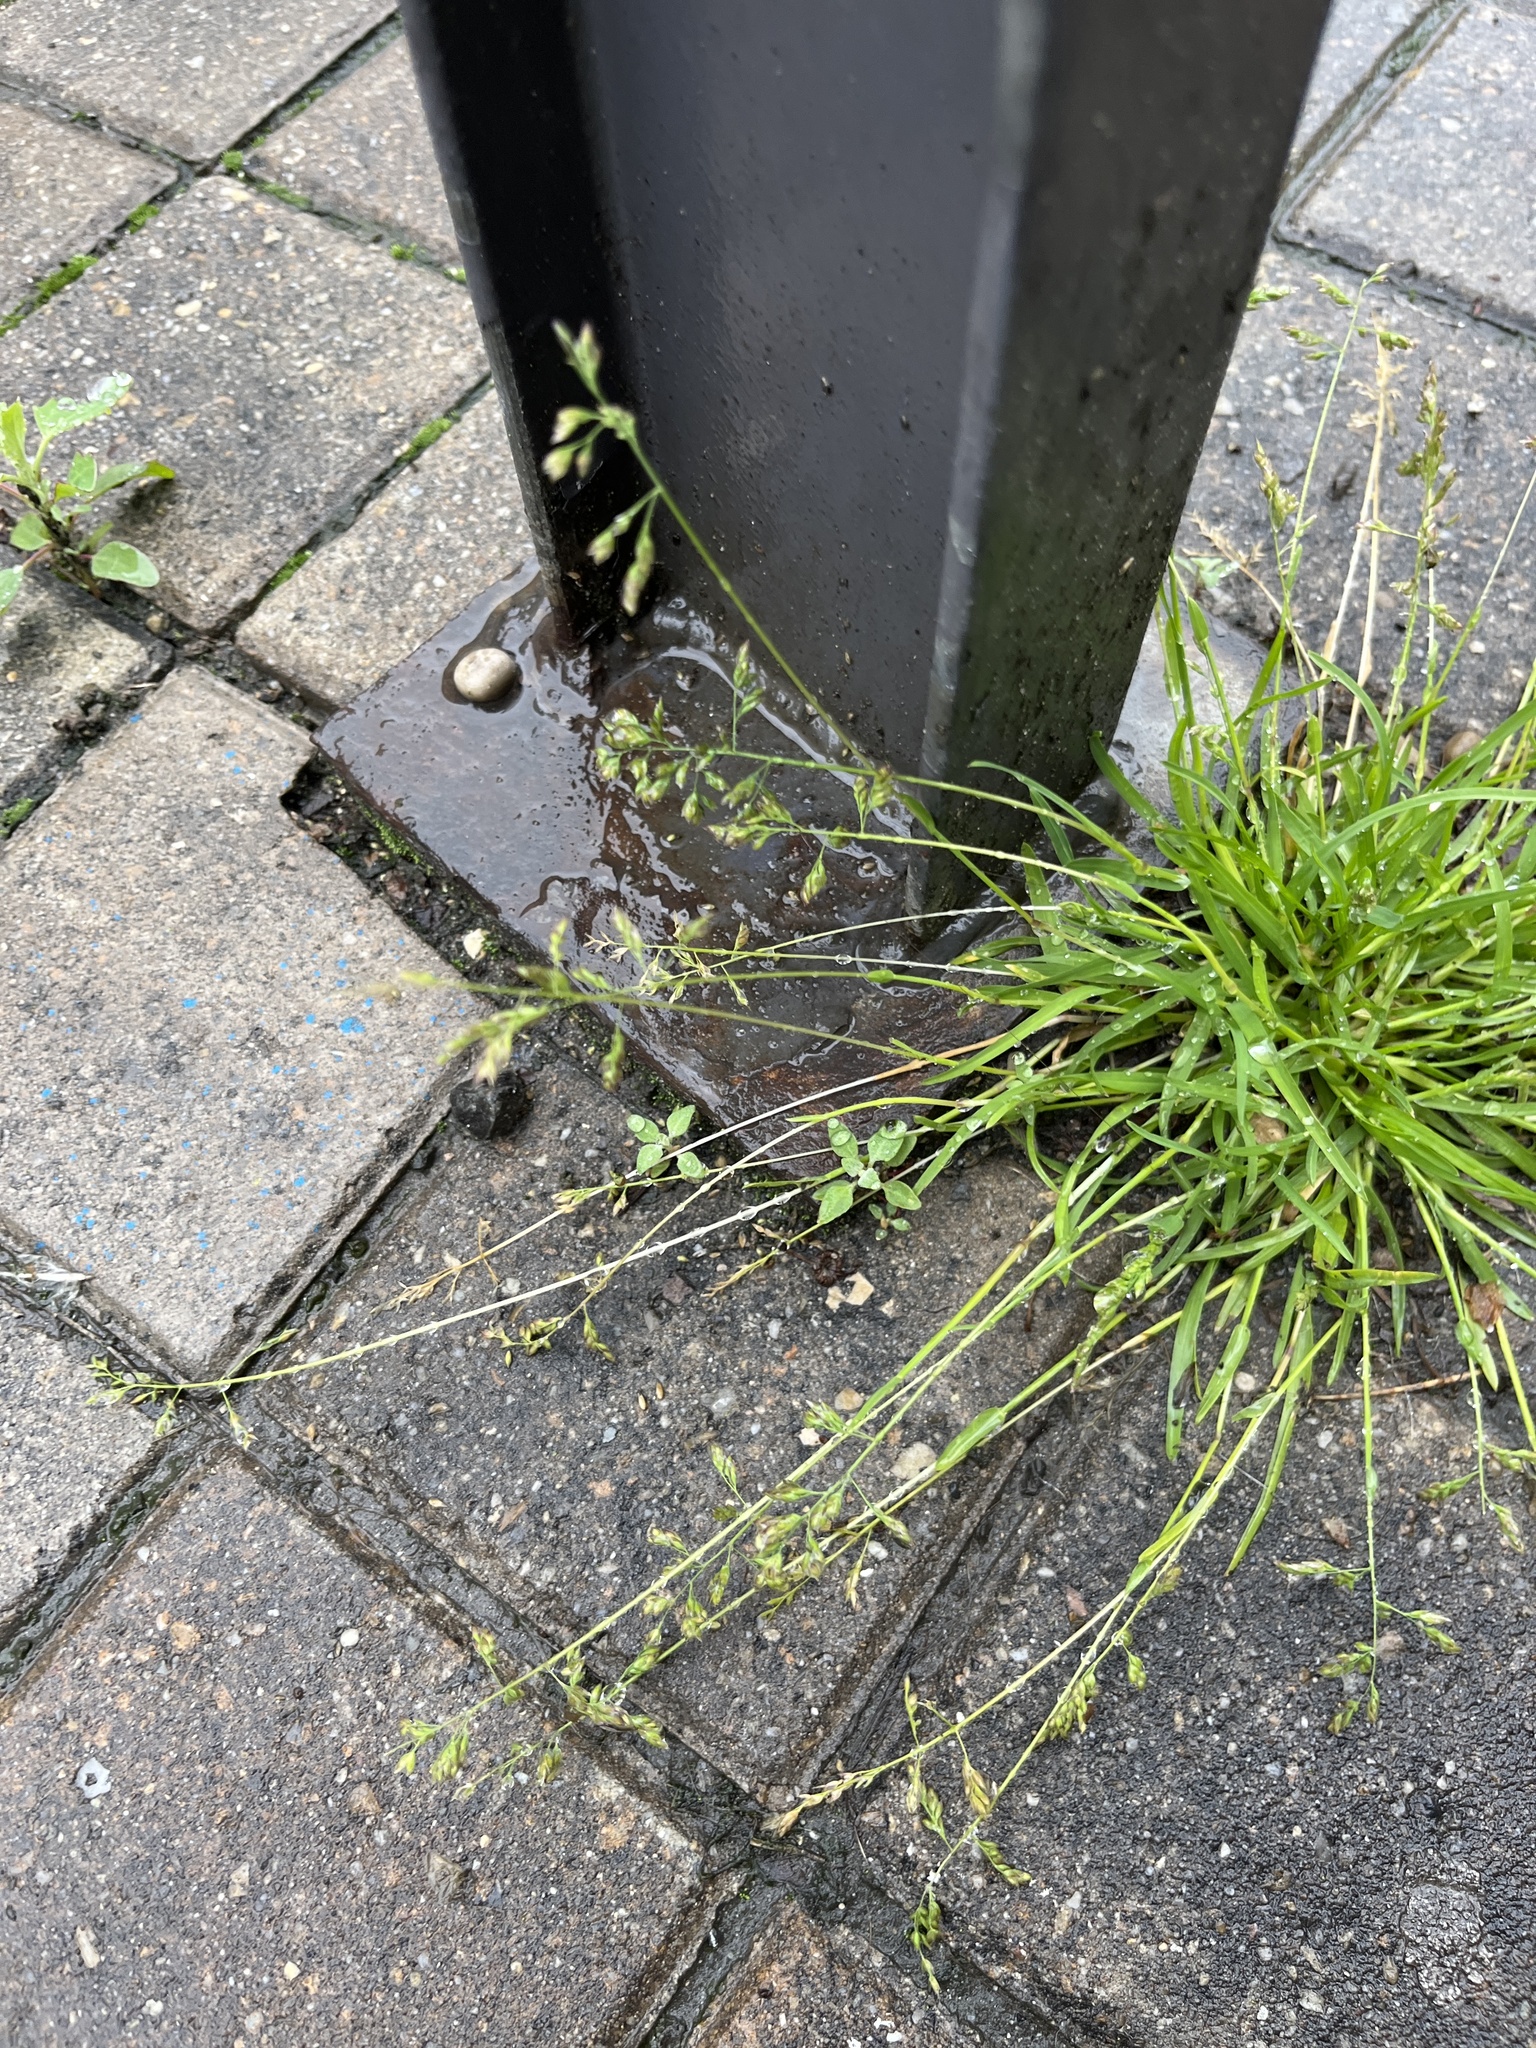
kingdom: Plantae
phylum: Tracheophyta
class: Liliopsida
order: Poales
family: Poaceae
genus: Poa
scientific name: Poa annua
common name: Annual bluegrass
